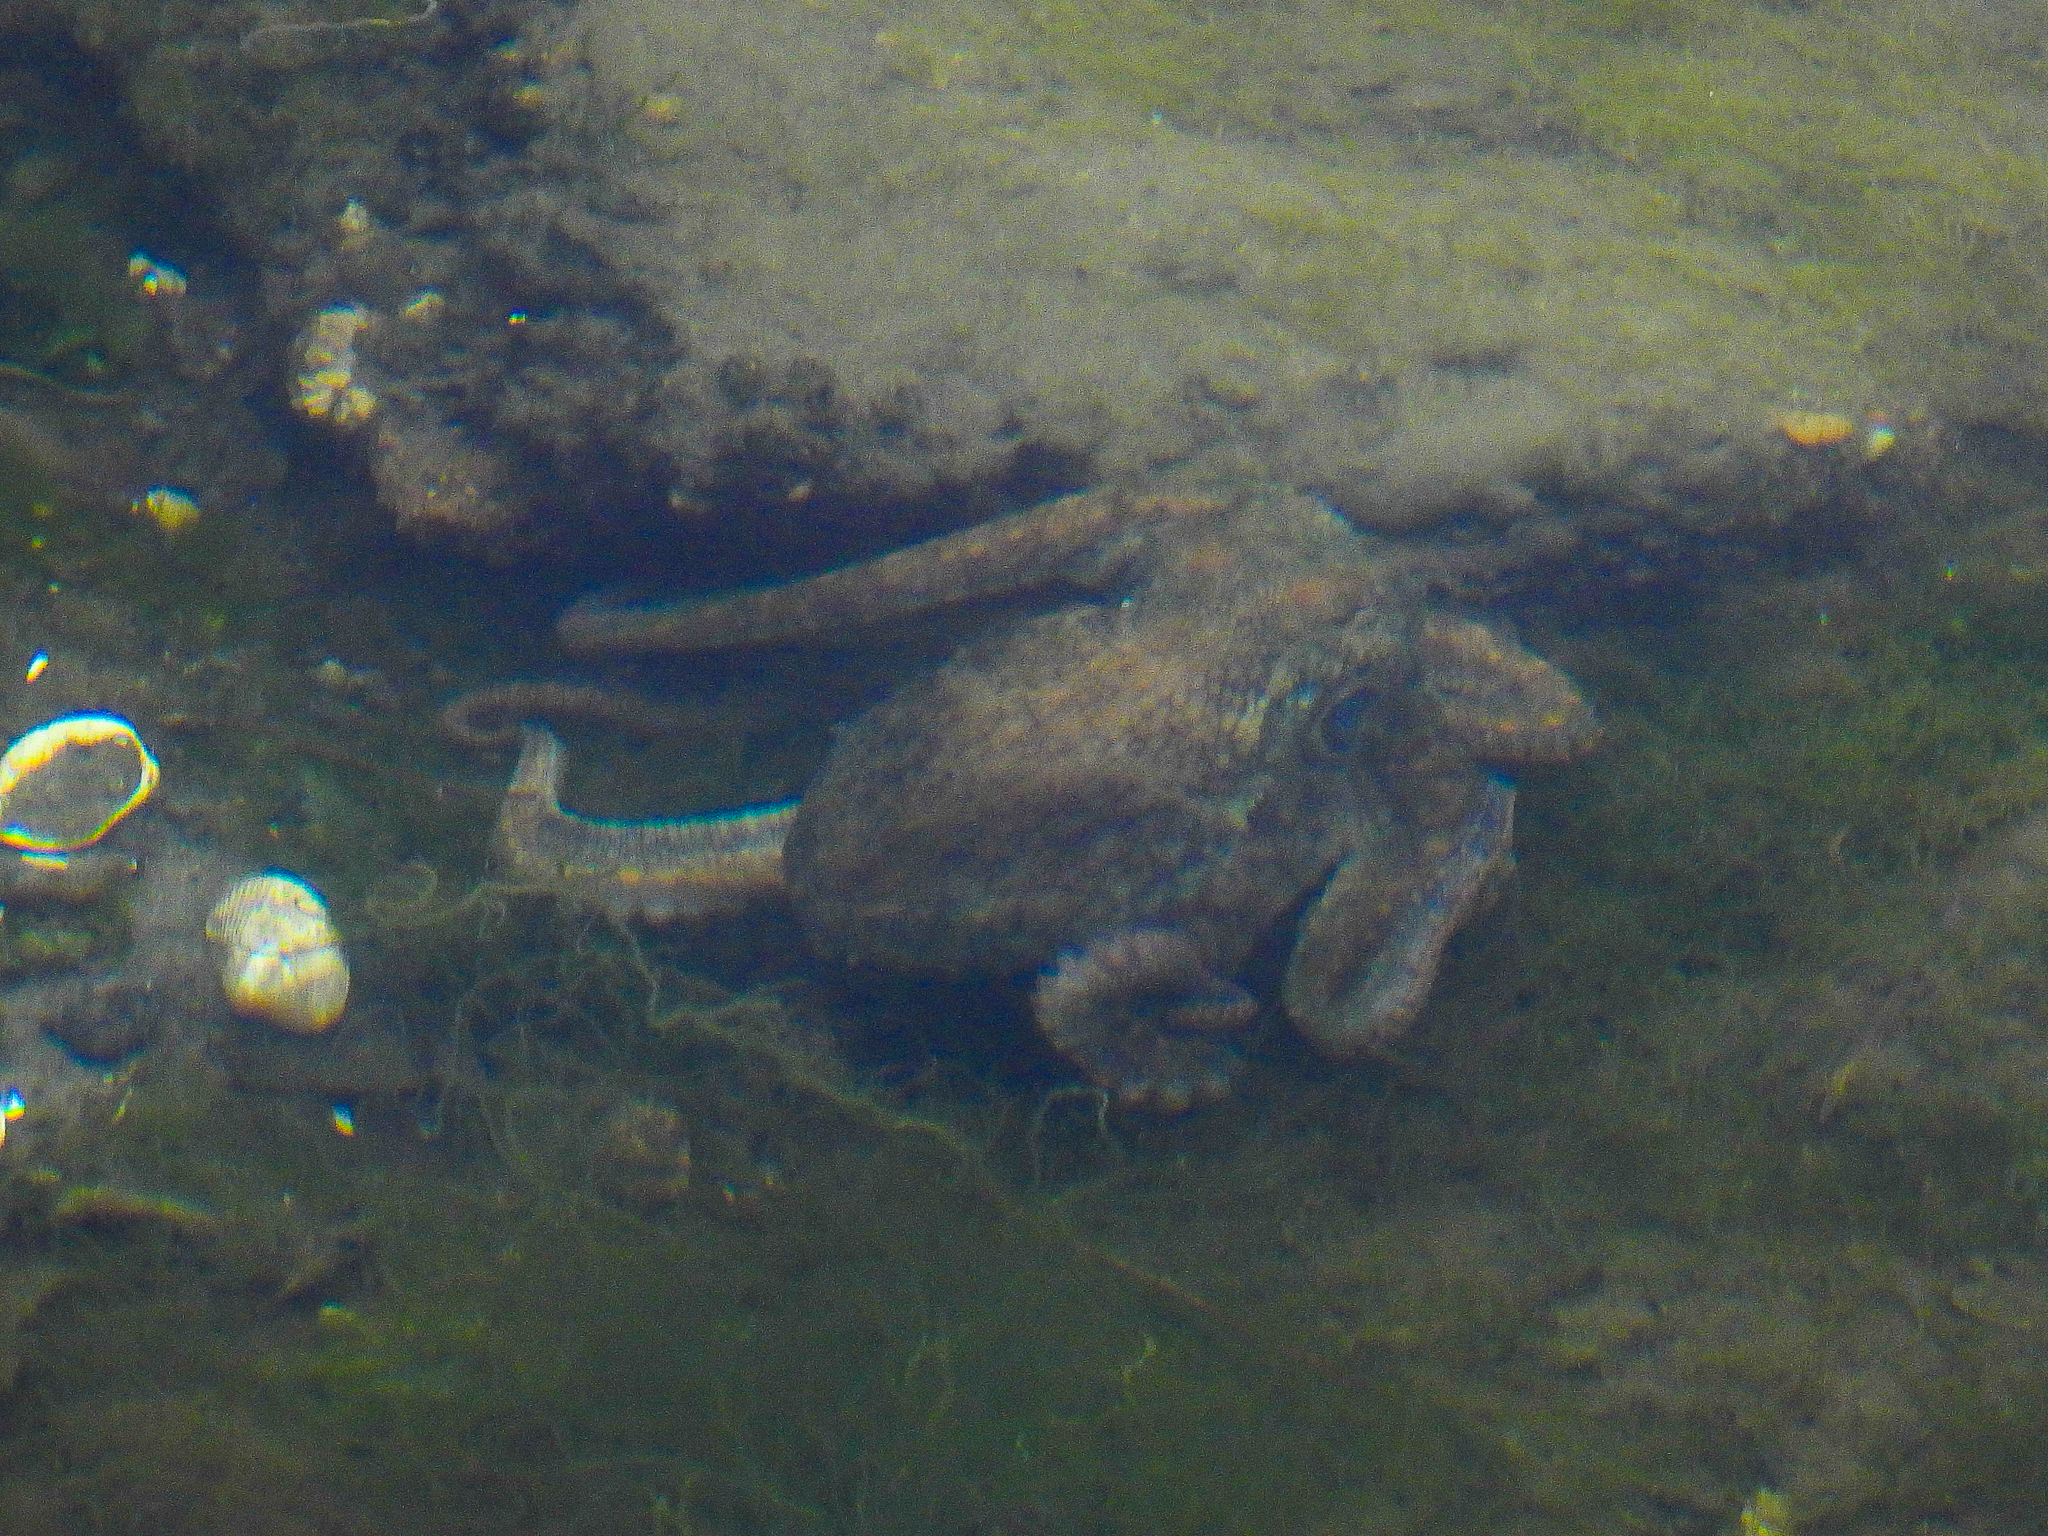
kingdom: Animalia
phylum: Mollusca
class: Cephalopoda
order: Octopoda
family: Octopodidae
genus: Octopus
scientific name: Octopus bimaculoides
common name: California two-spot octopus
